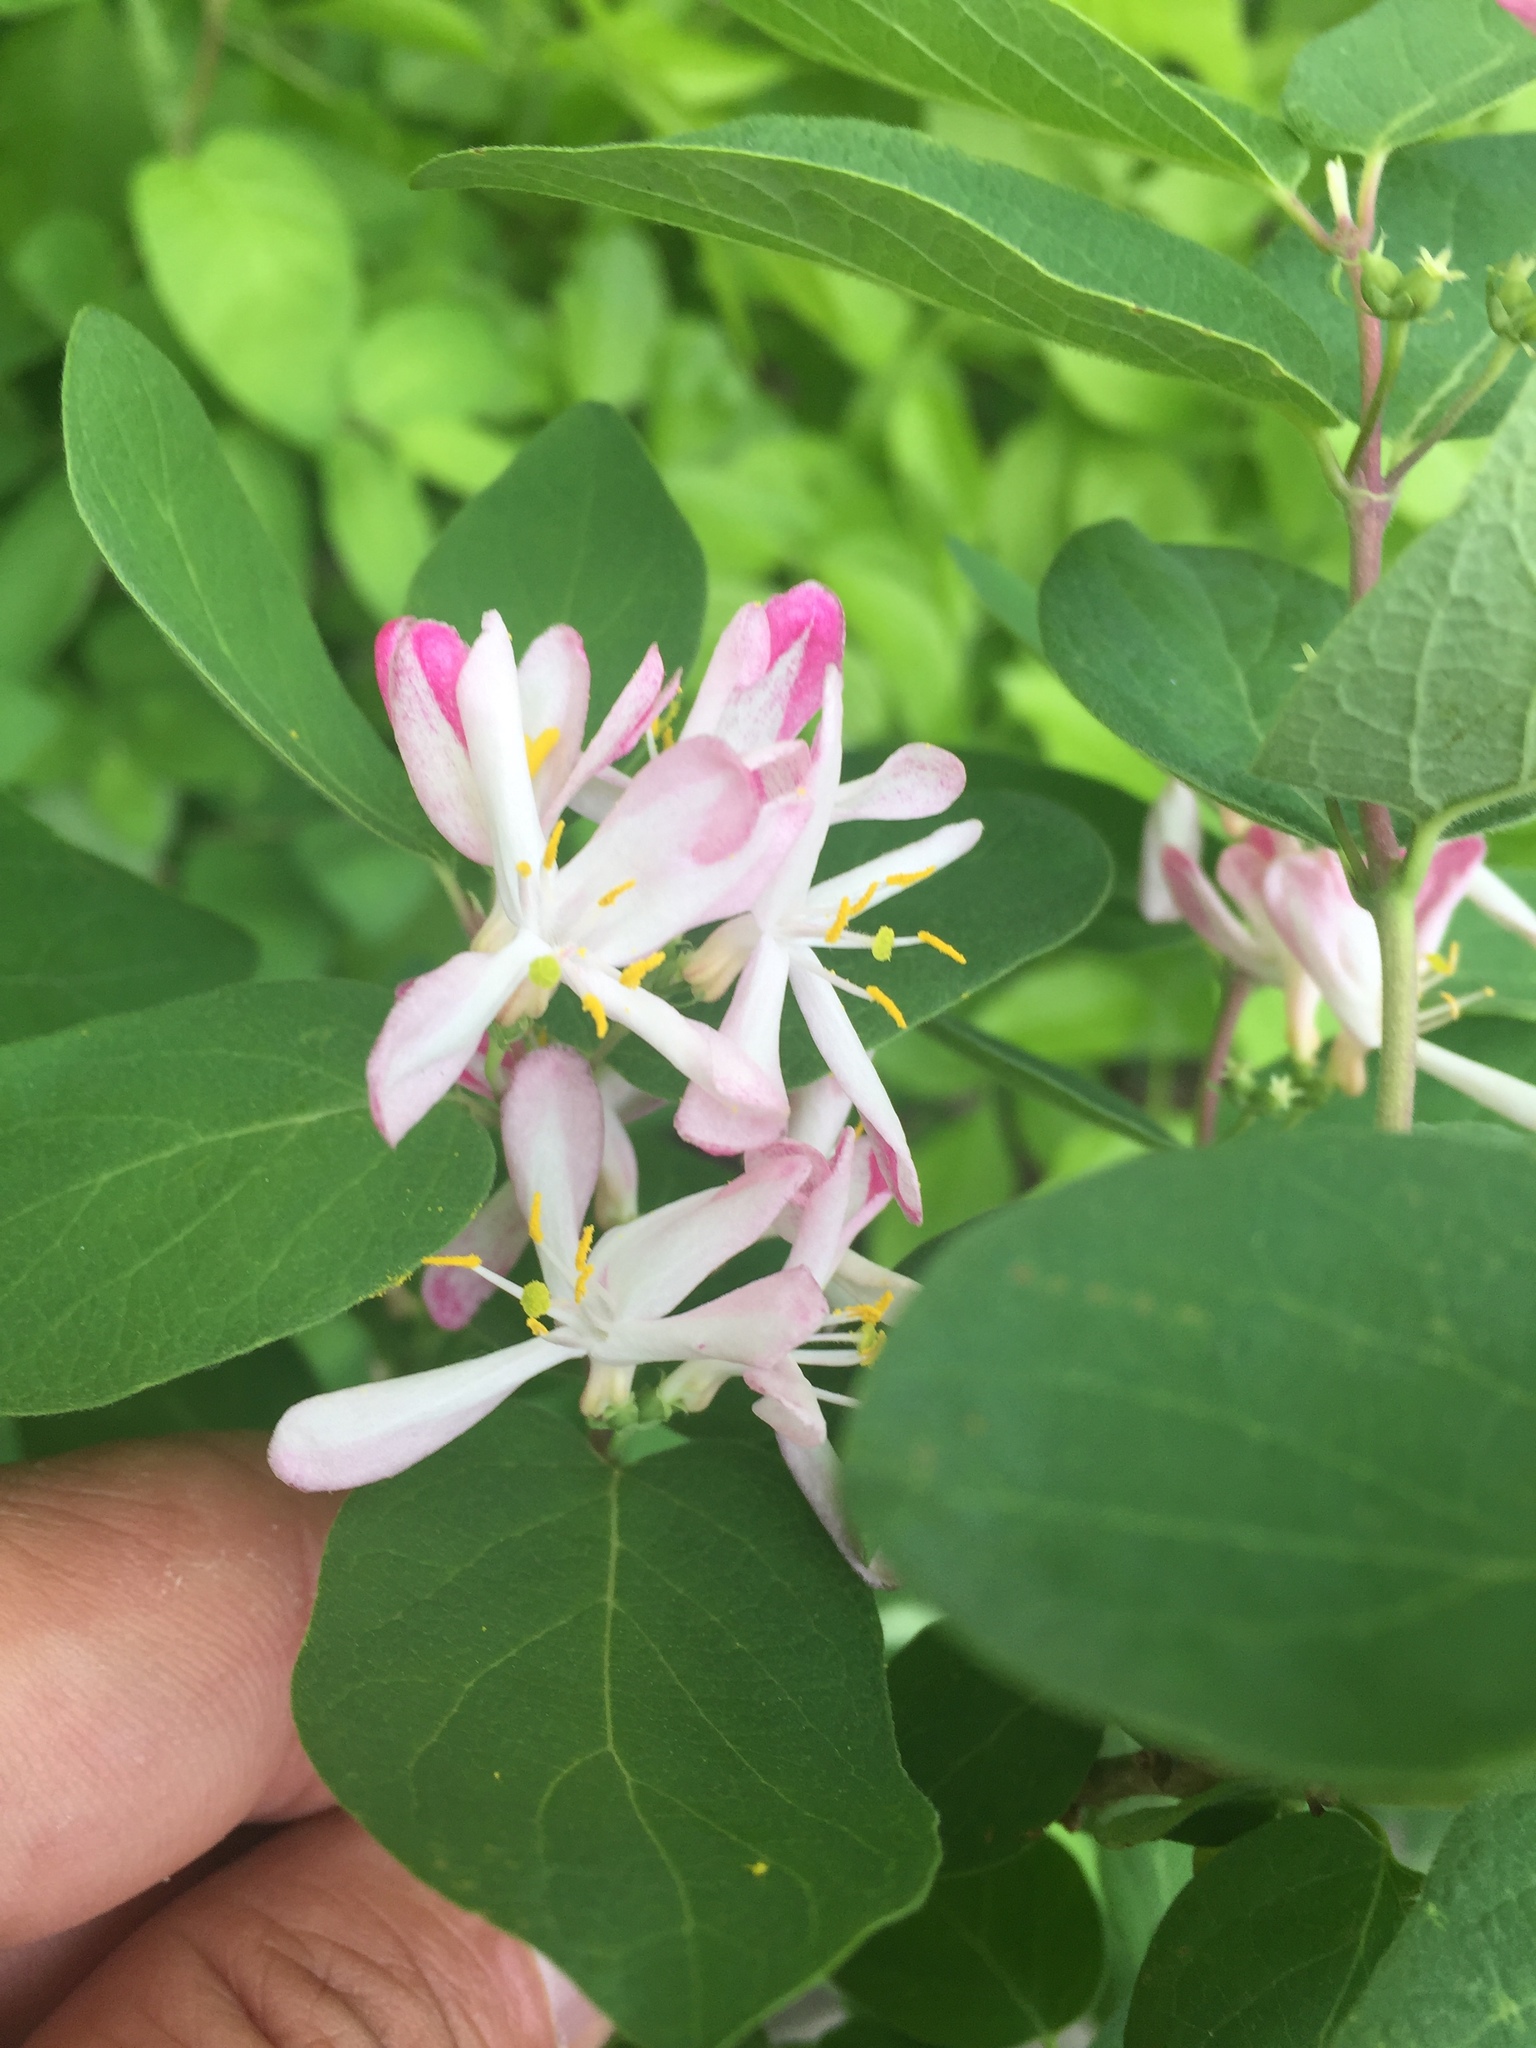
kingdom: Plantae
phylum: Tracheophyta
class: Magnoliopsida
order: Dipsacales
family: Caprifoliaceae
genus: Lonicera
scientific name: Lonicera tatarica
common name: Tatarian honeysuckle
